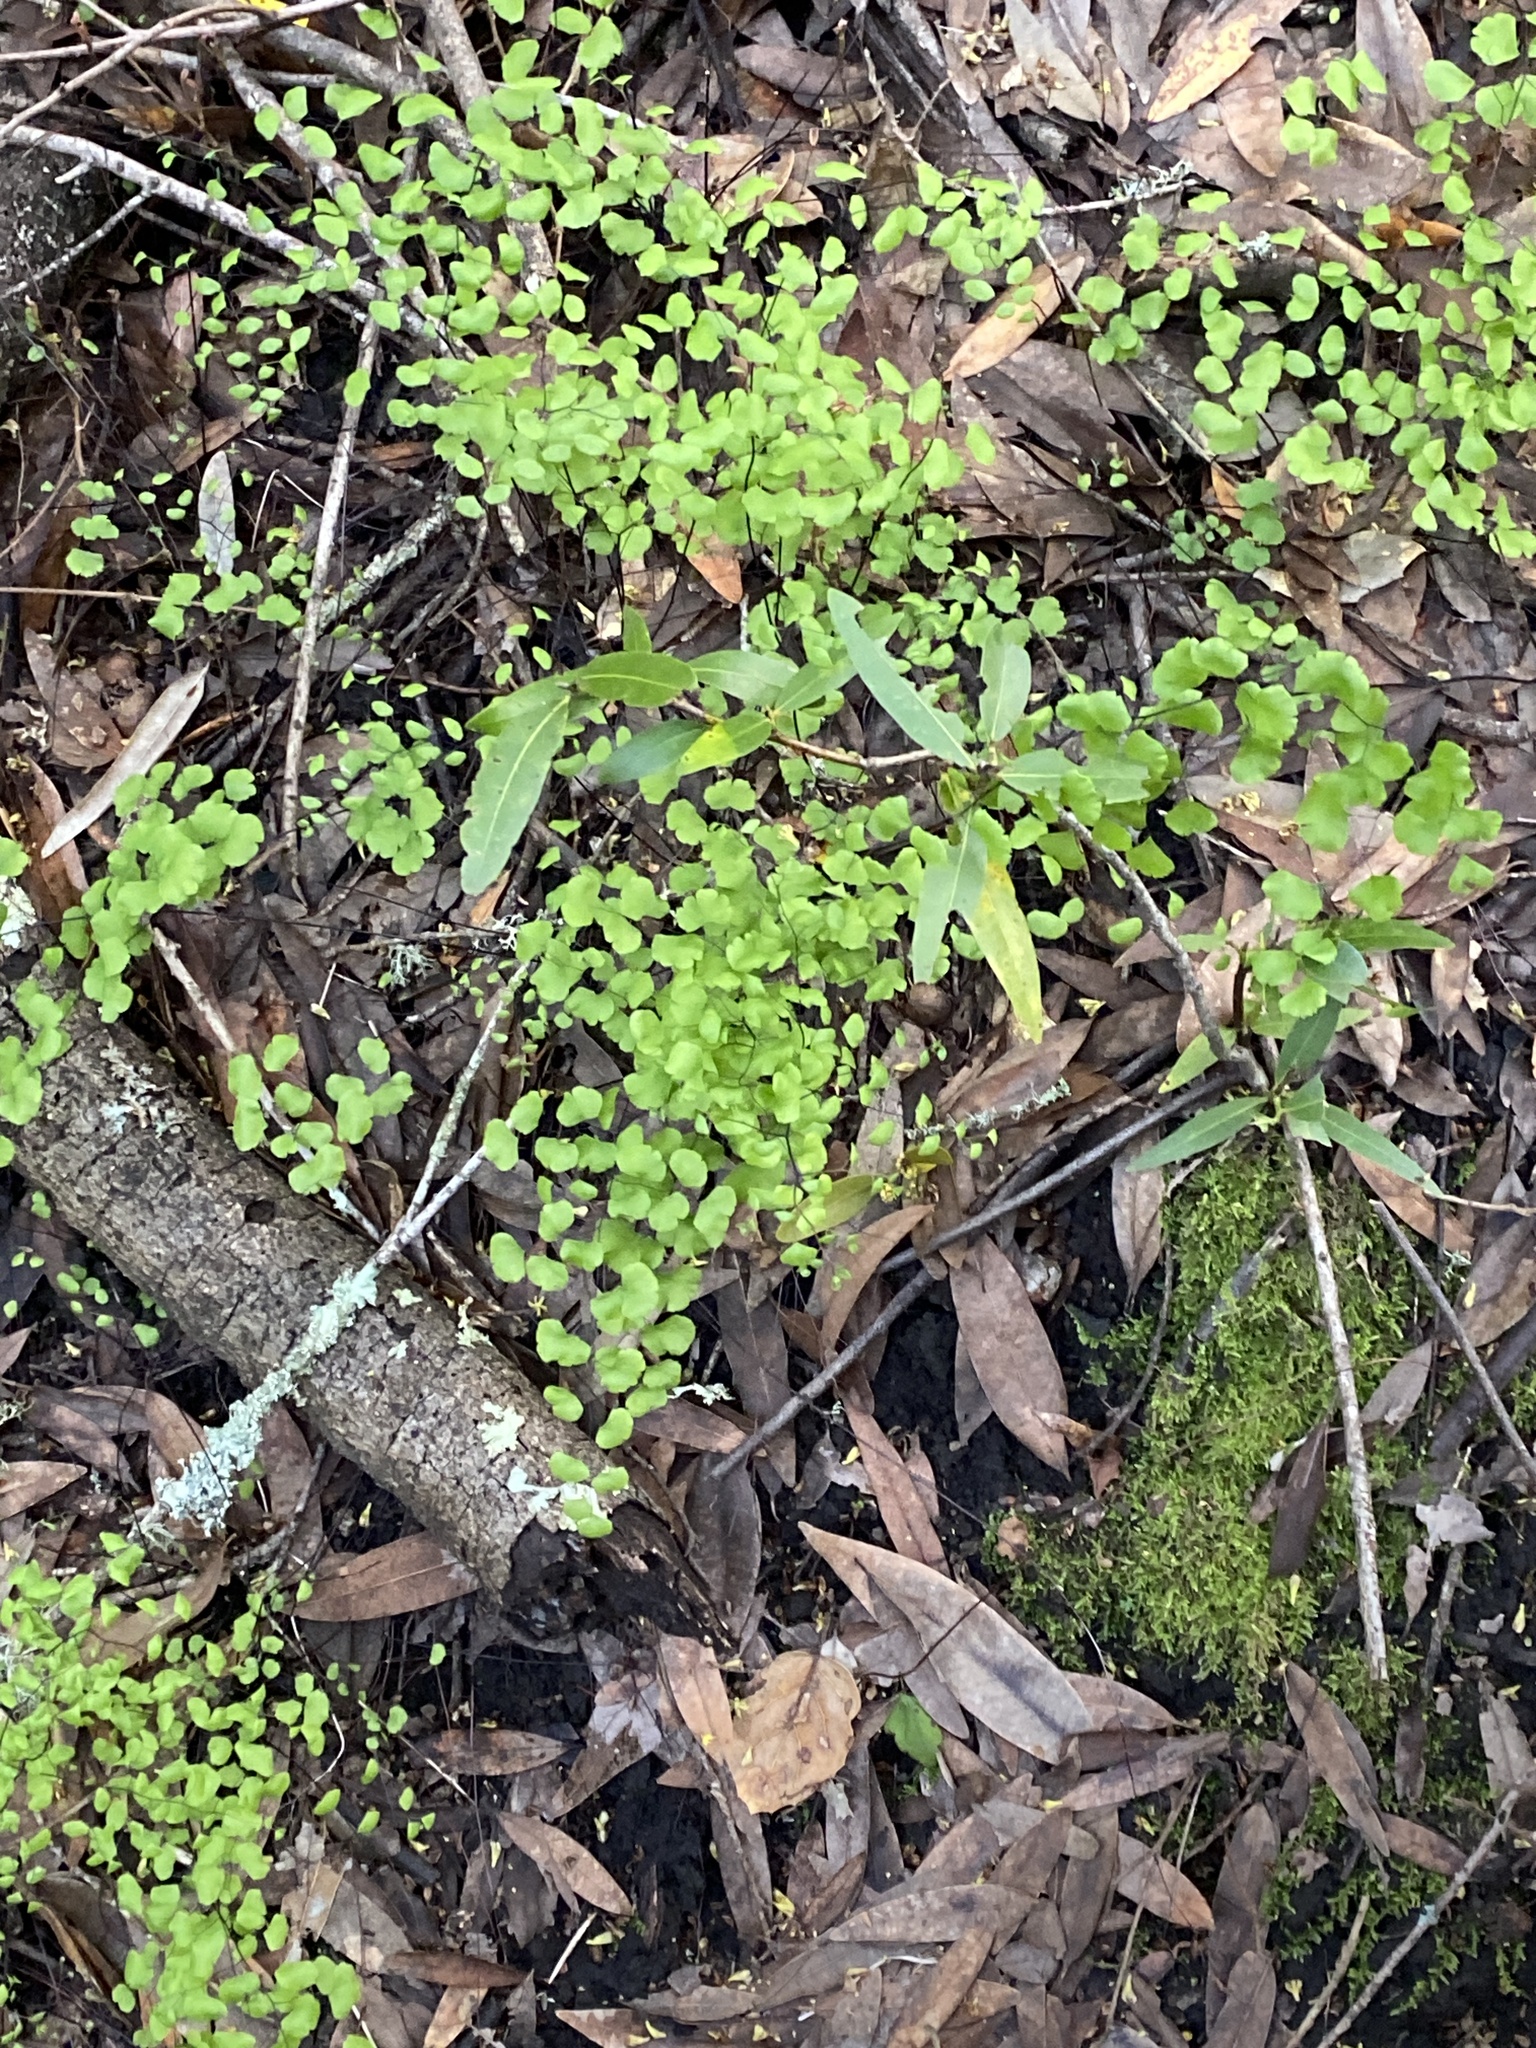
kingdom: Plantae
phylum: Tracheophyta
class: Polypodiopsida
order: Polypodiales
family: Pteridaceae
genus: Adiantum
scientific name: Adiantum jordanii
